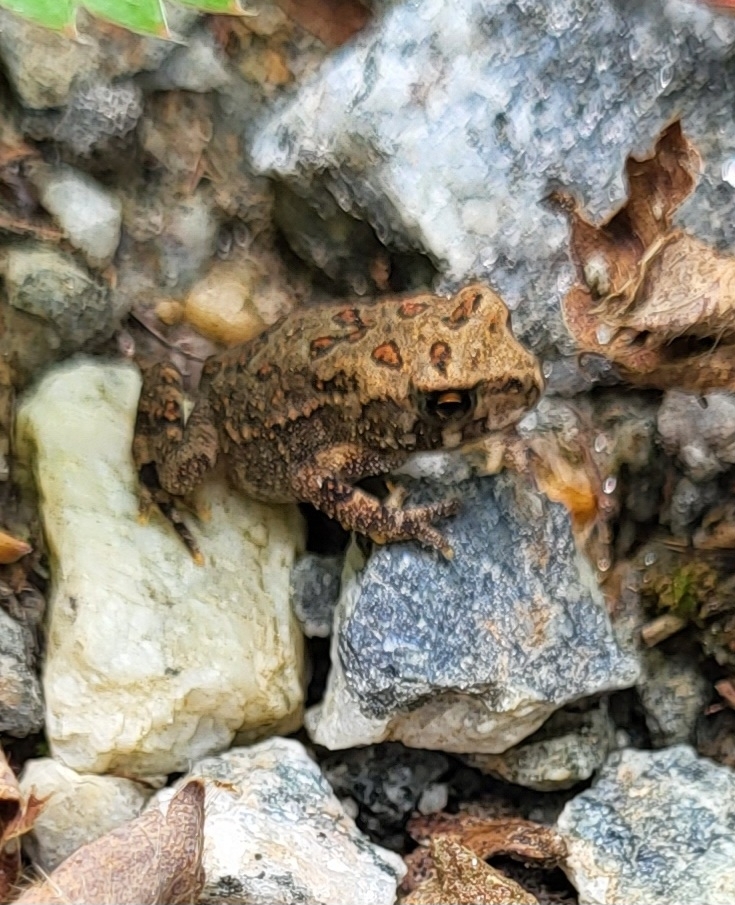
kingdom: Animalia
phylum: Chordata
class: Amphibia
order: Anura
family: Bufonidae
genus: Anaxyrus
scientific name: Anaxyrus americanus
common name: American toad
